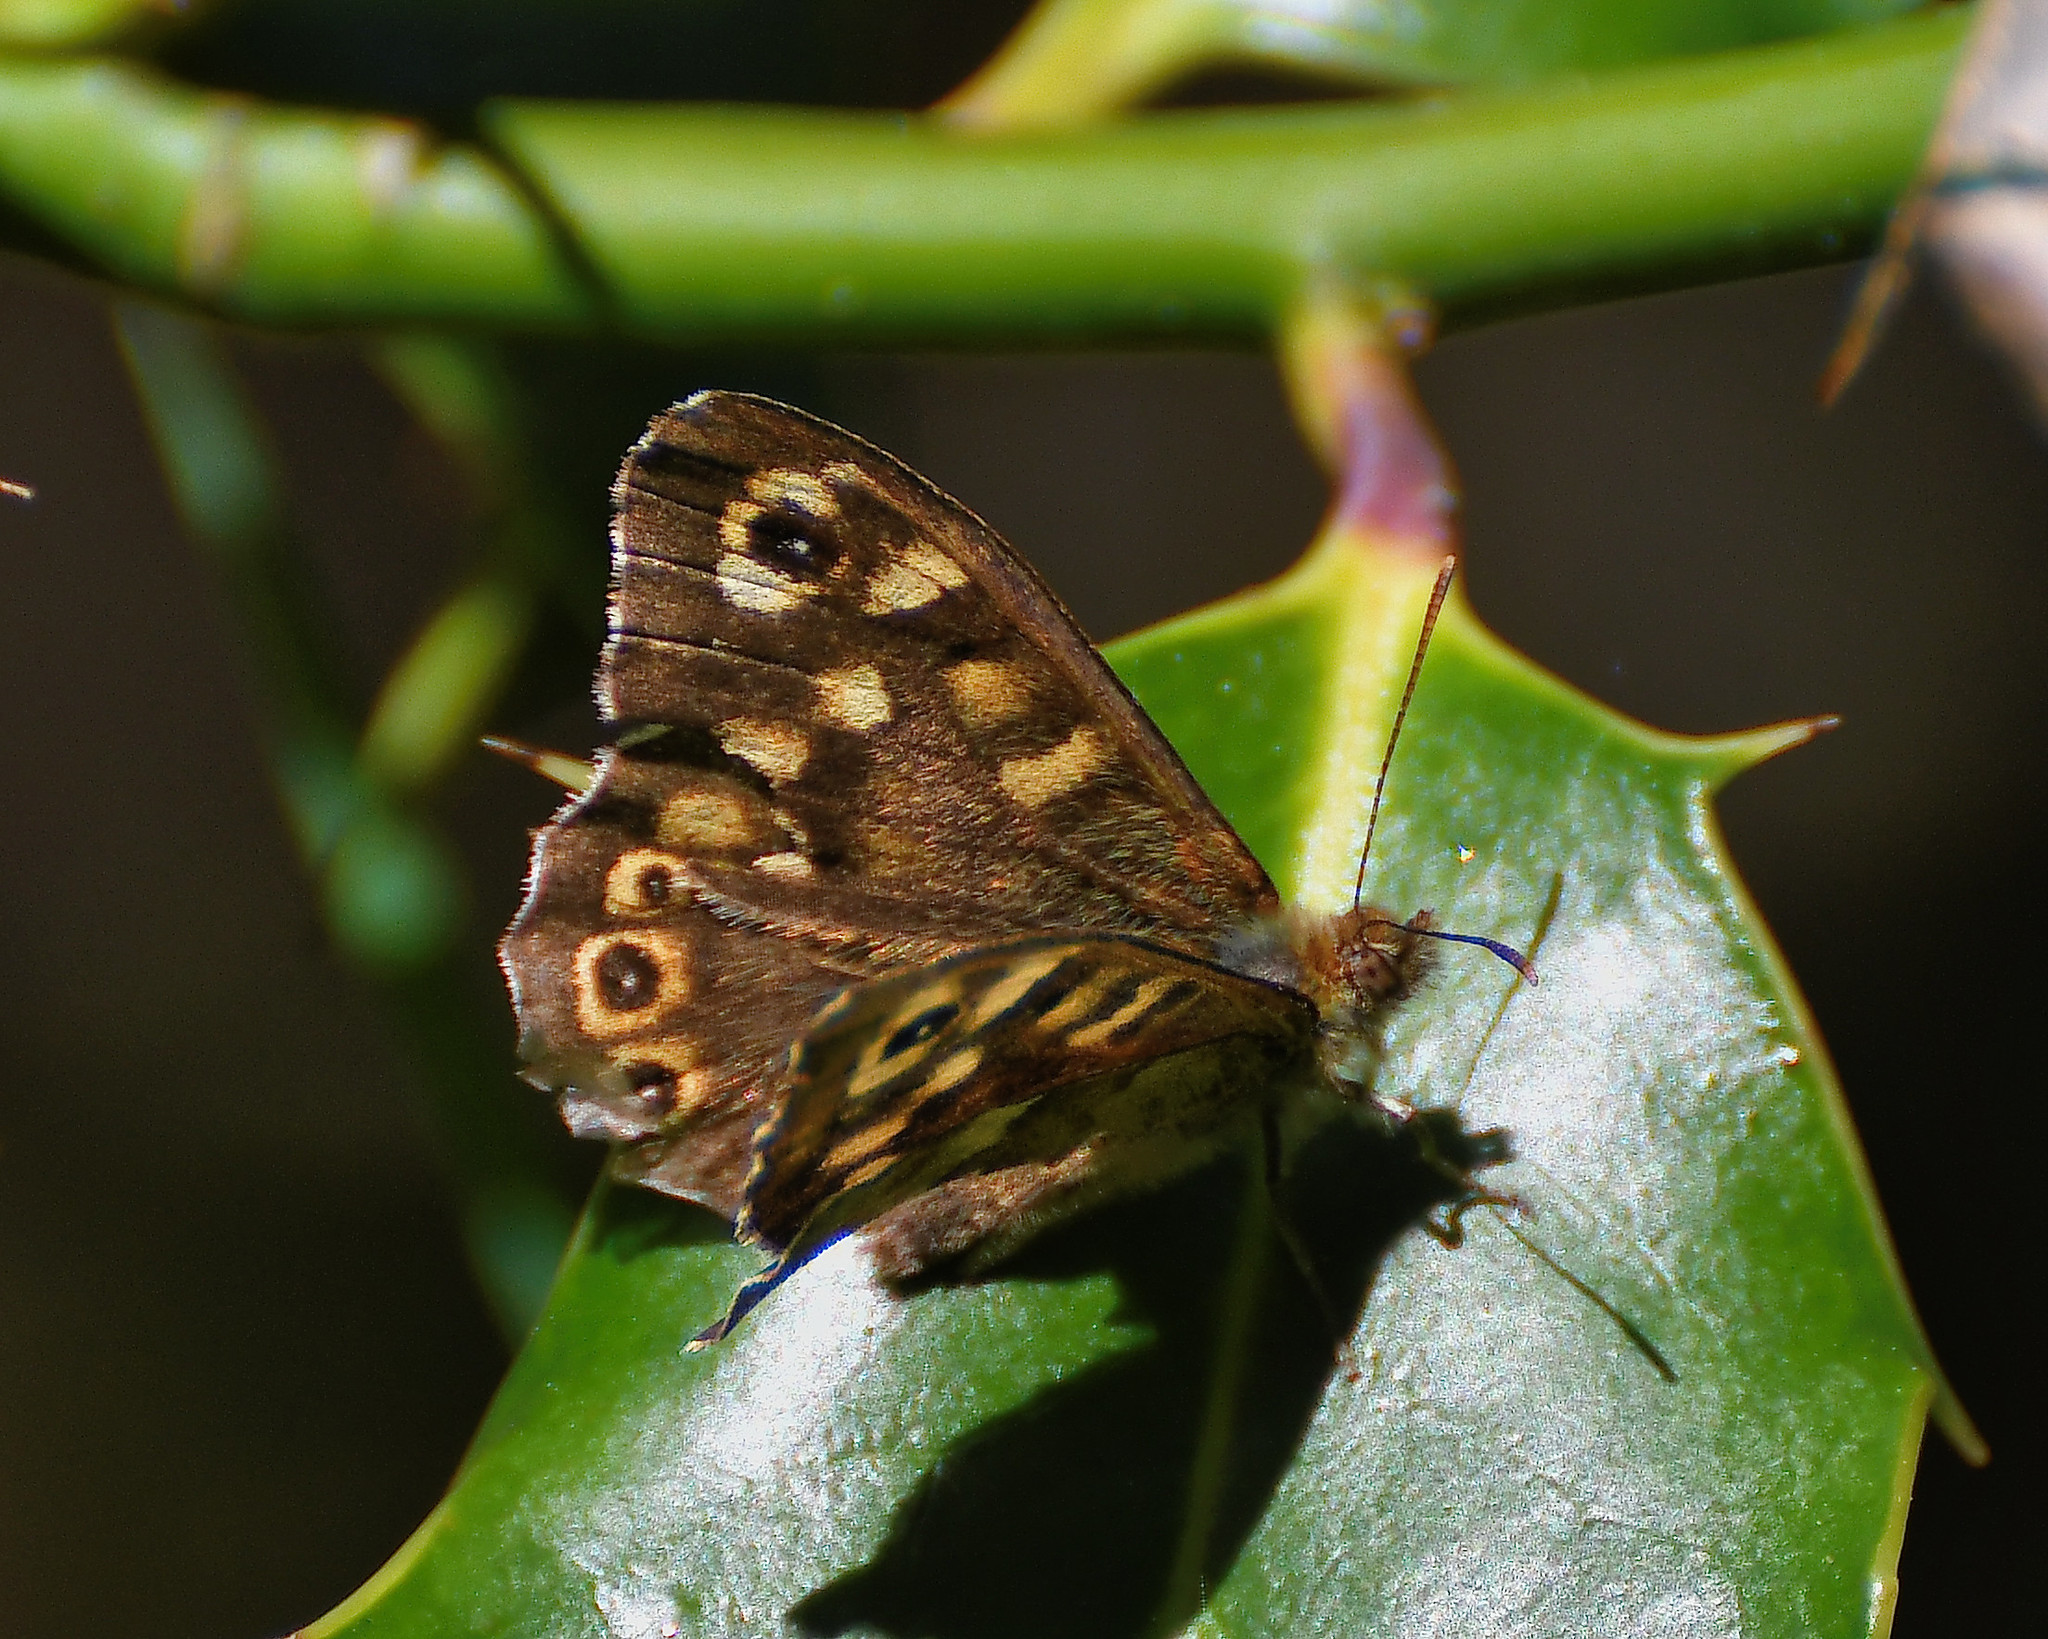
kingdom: Animalia
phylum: Arthropoda
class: Insecta
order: Lepidoptera
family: Nymphalidae
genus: Pararge
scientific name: Pararge aegeria
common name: Speckled wood
